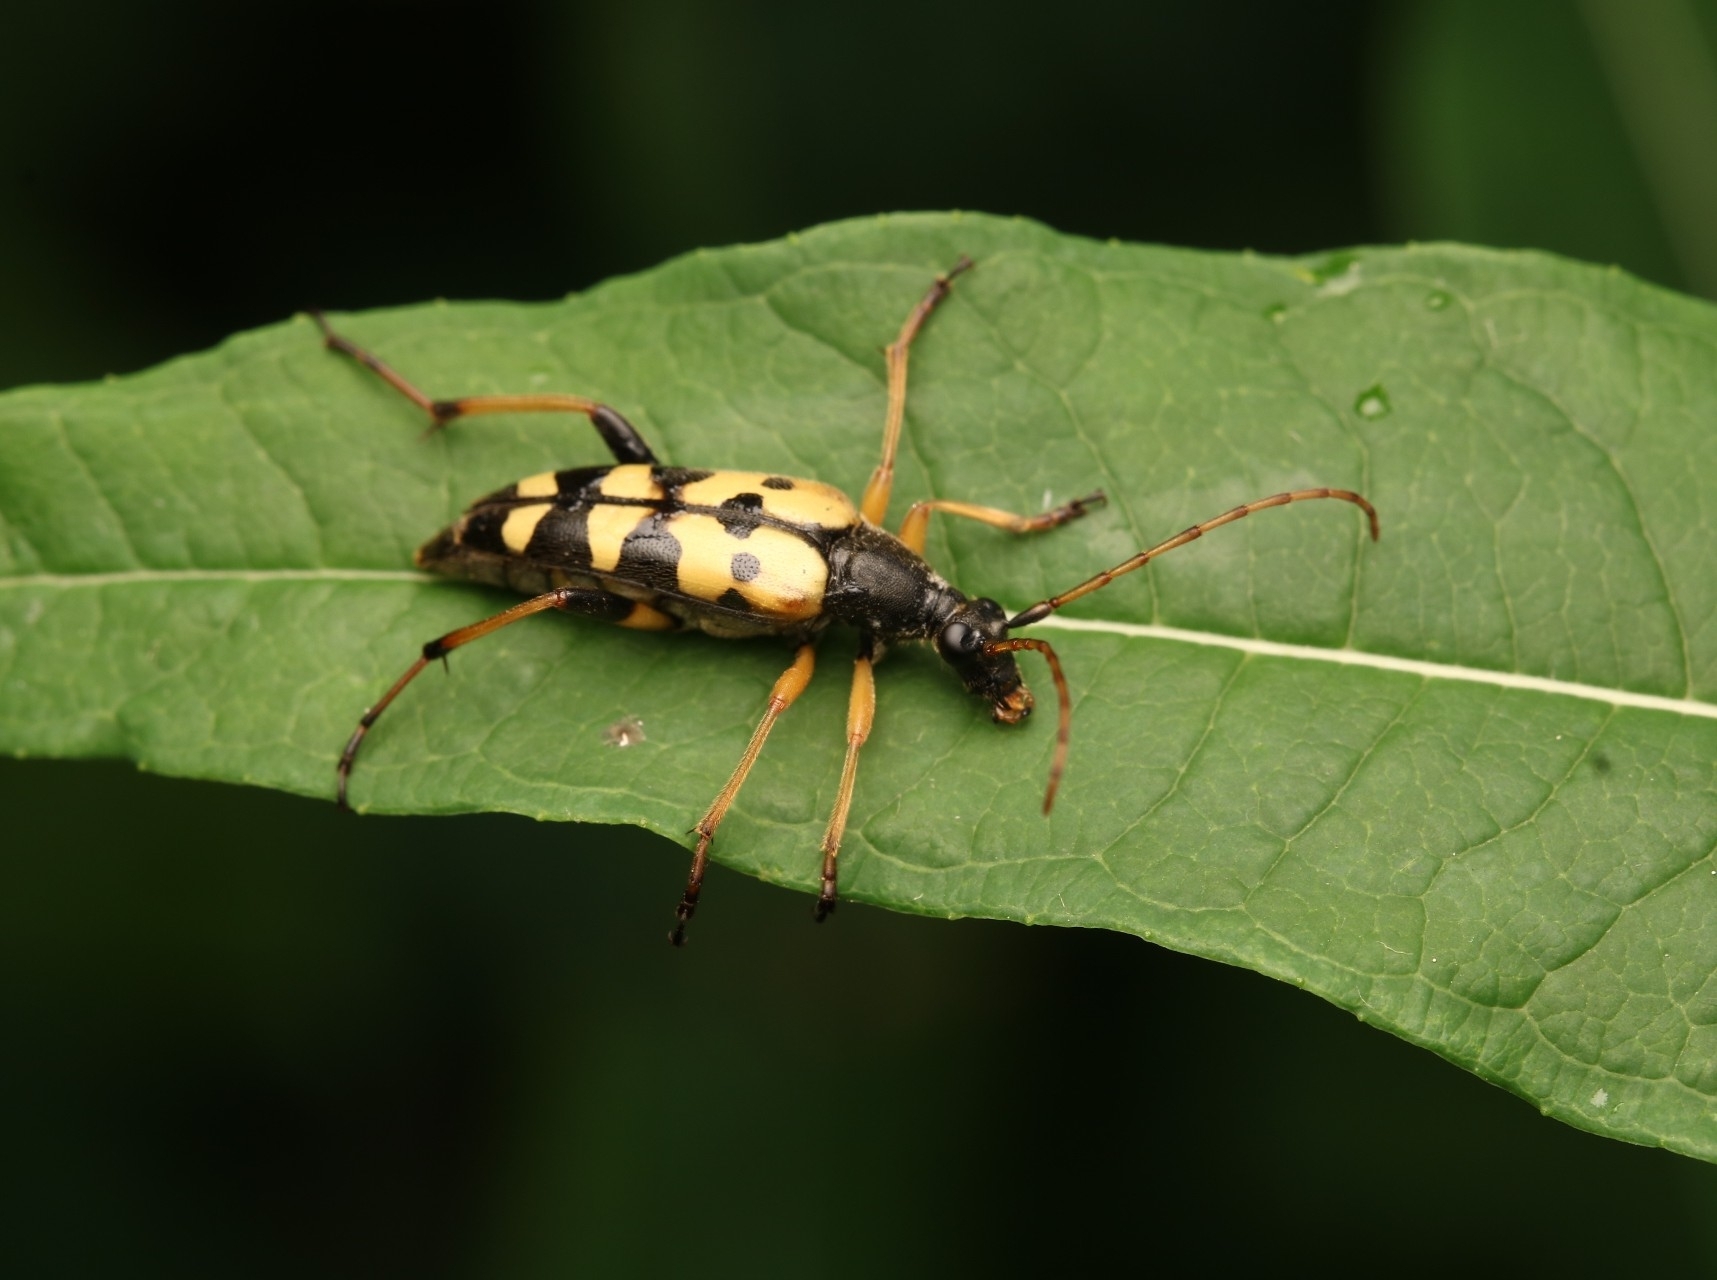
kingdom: Animalia
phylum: Arthropoda
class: Insecta
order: Coleoptera
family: Cerambycidae
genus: Rutpela
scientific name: Rutpela maculata
